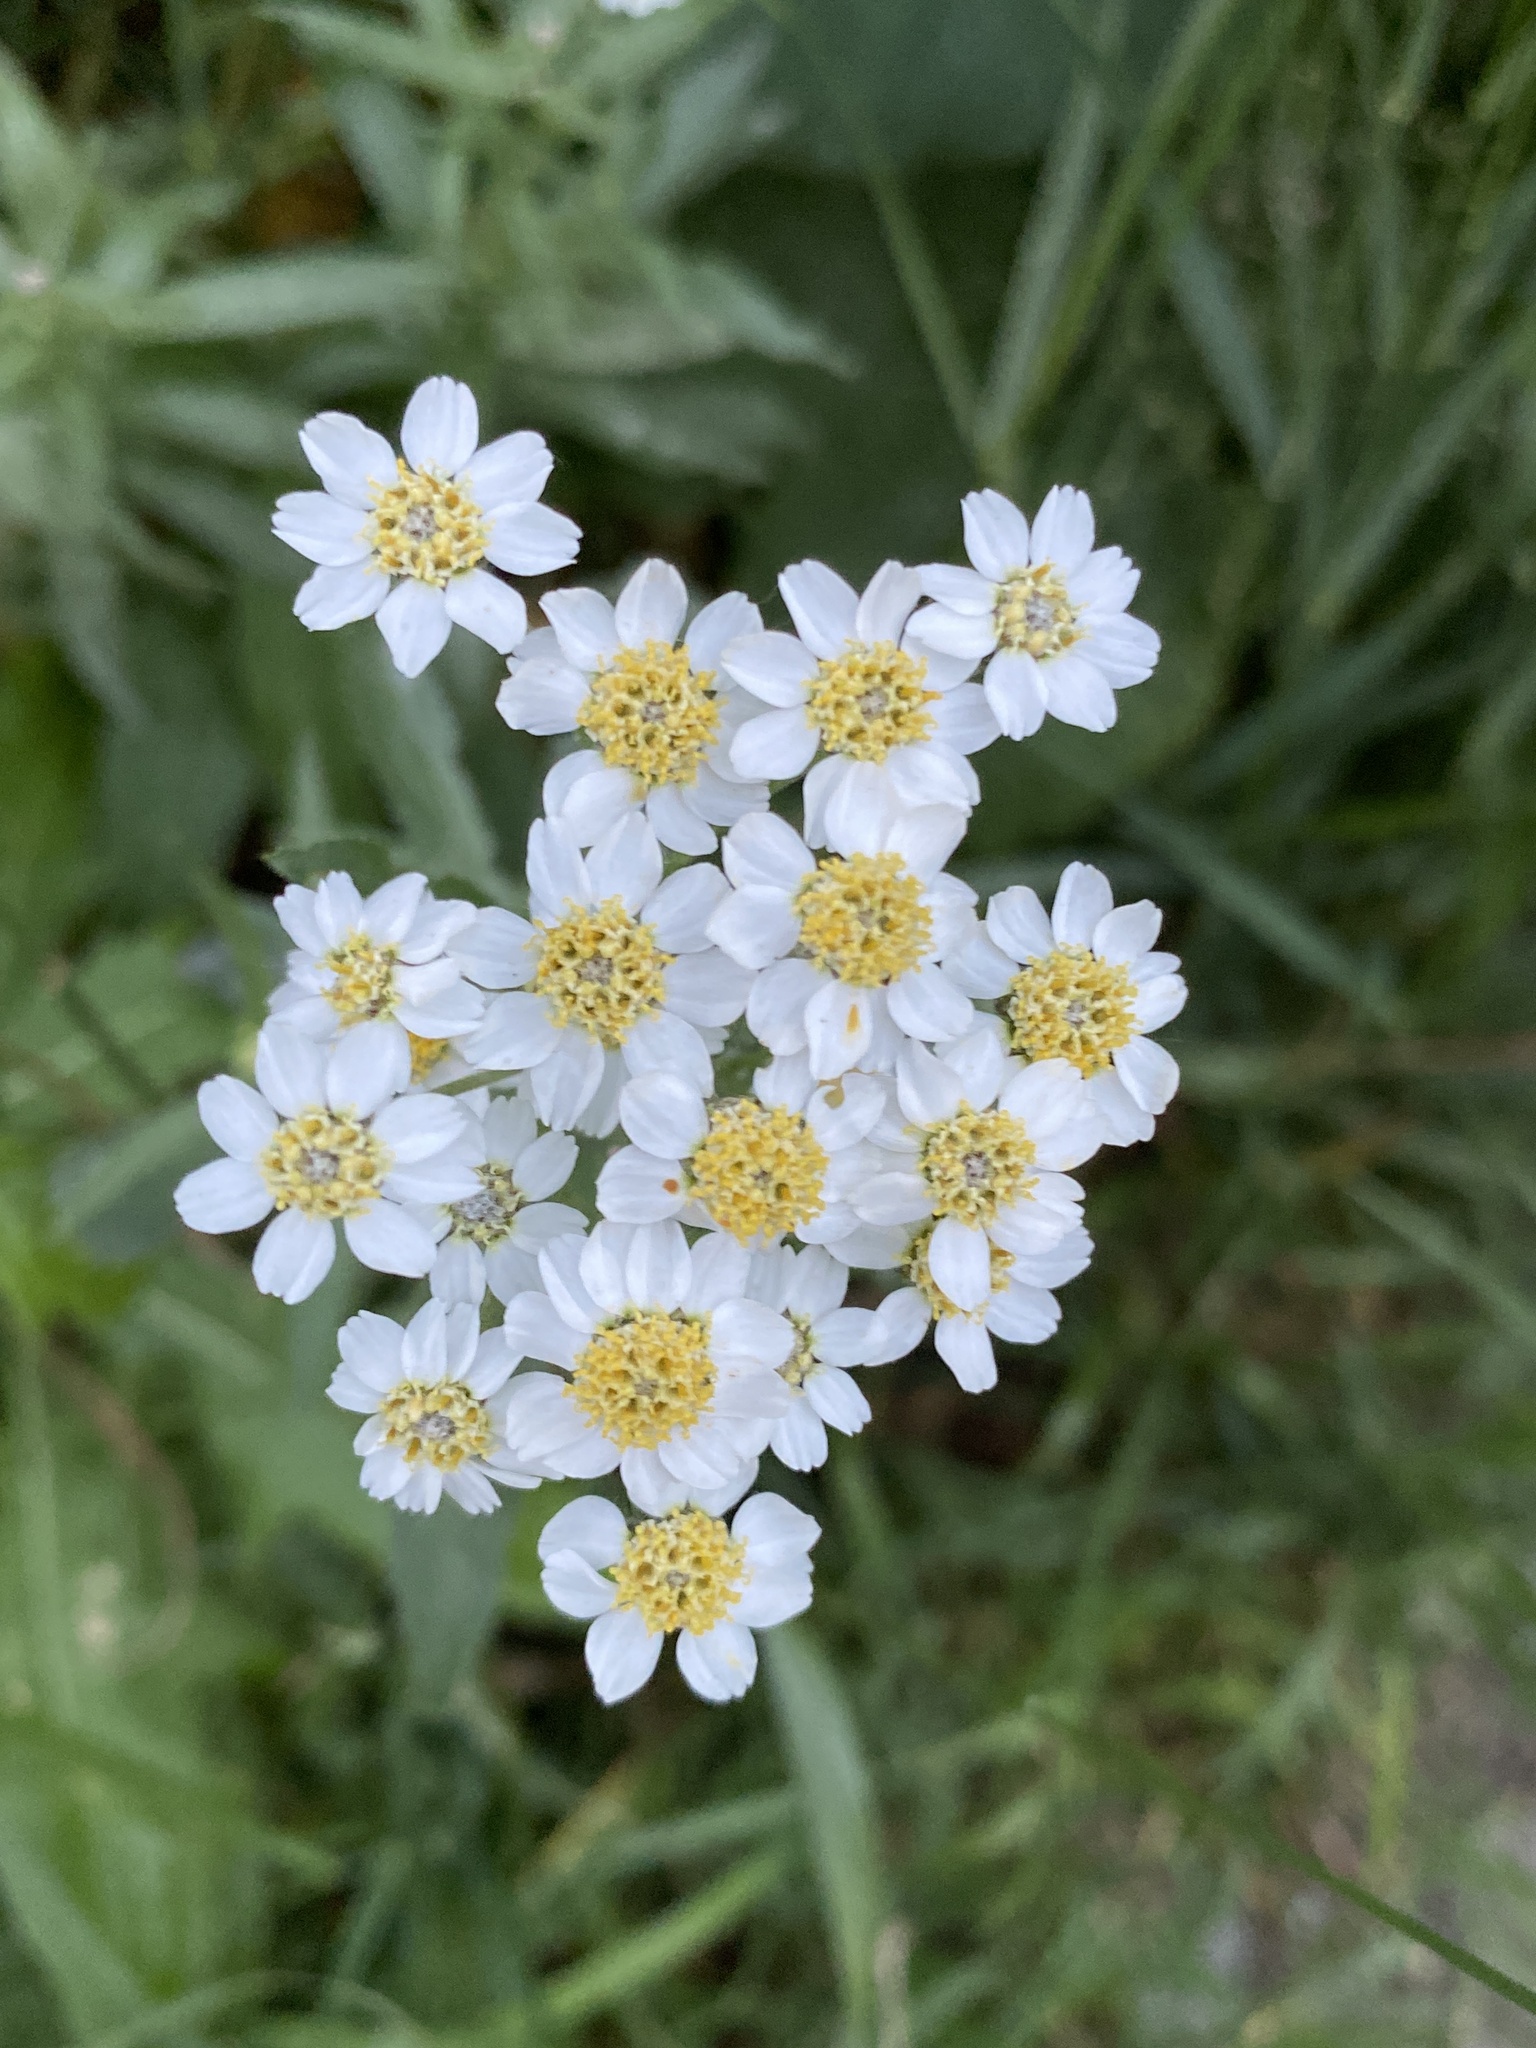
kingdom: Plantae
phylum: Tracheophyta
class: Magnoliopsida
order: Asterales
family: Asteraceae
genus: Achillea
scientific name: Achillea salicifolia
